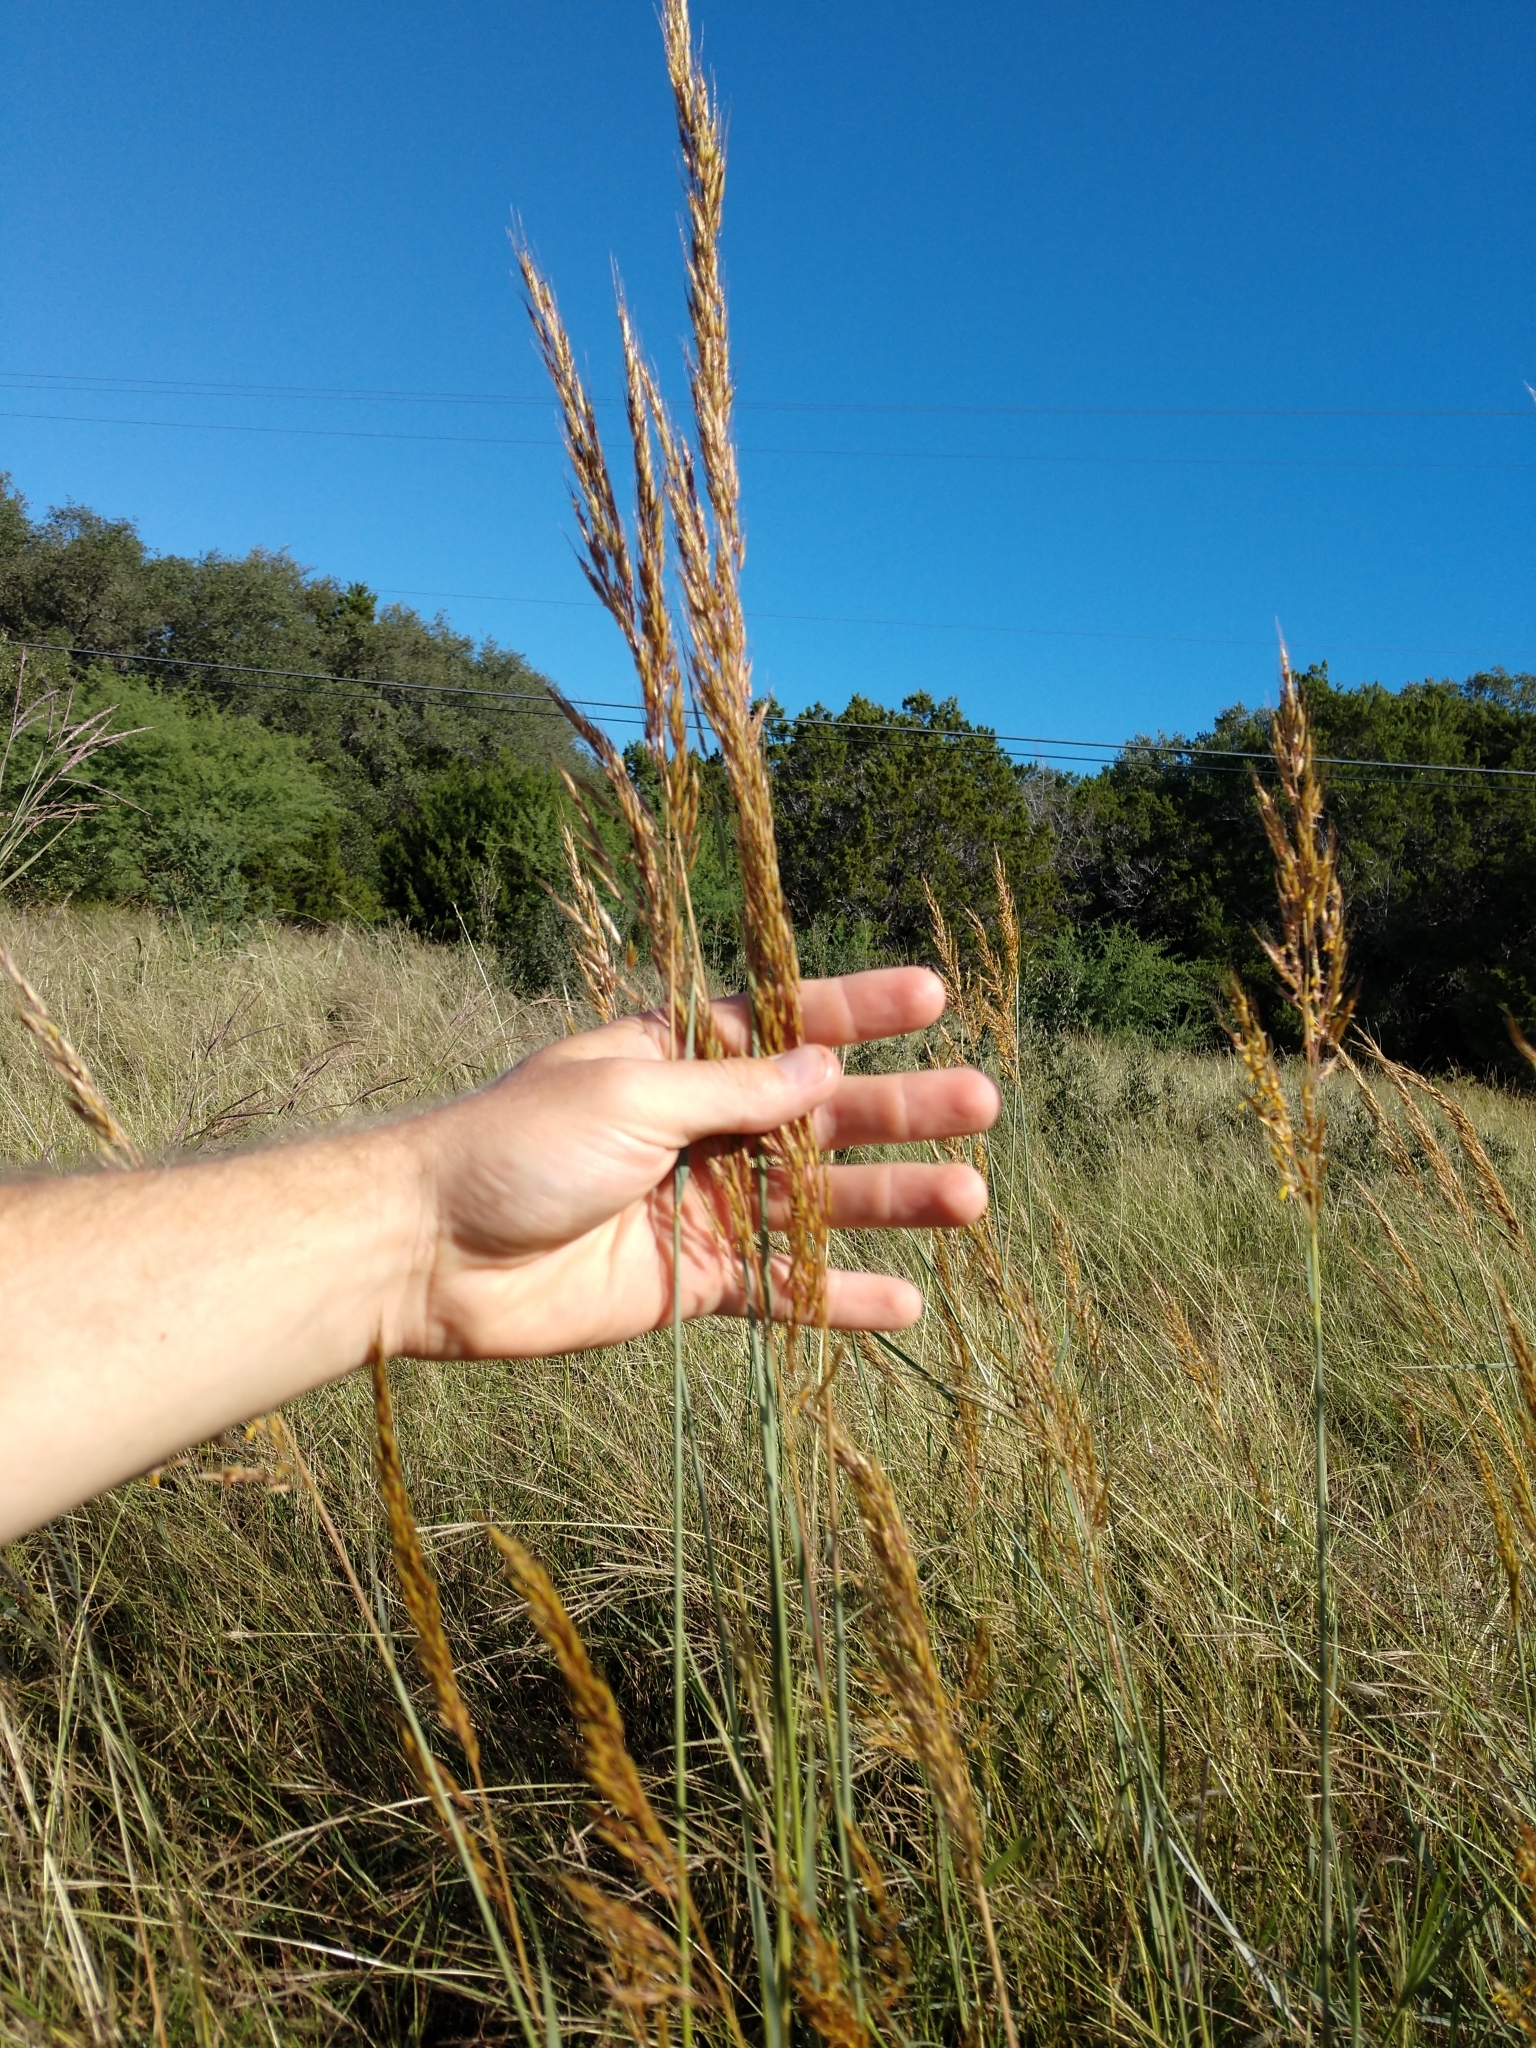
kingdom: Plantae
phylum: Tracheophyta
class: Liliopsida
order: Poales
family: Poaceae
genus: Sorghastrum
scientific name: Sorghastrum nutans
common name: Indian grass
